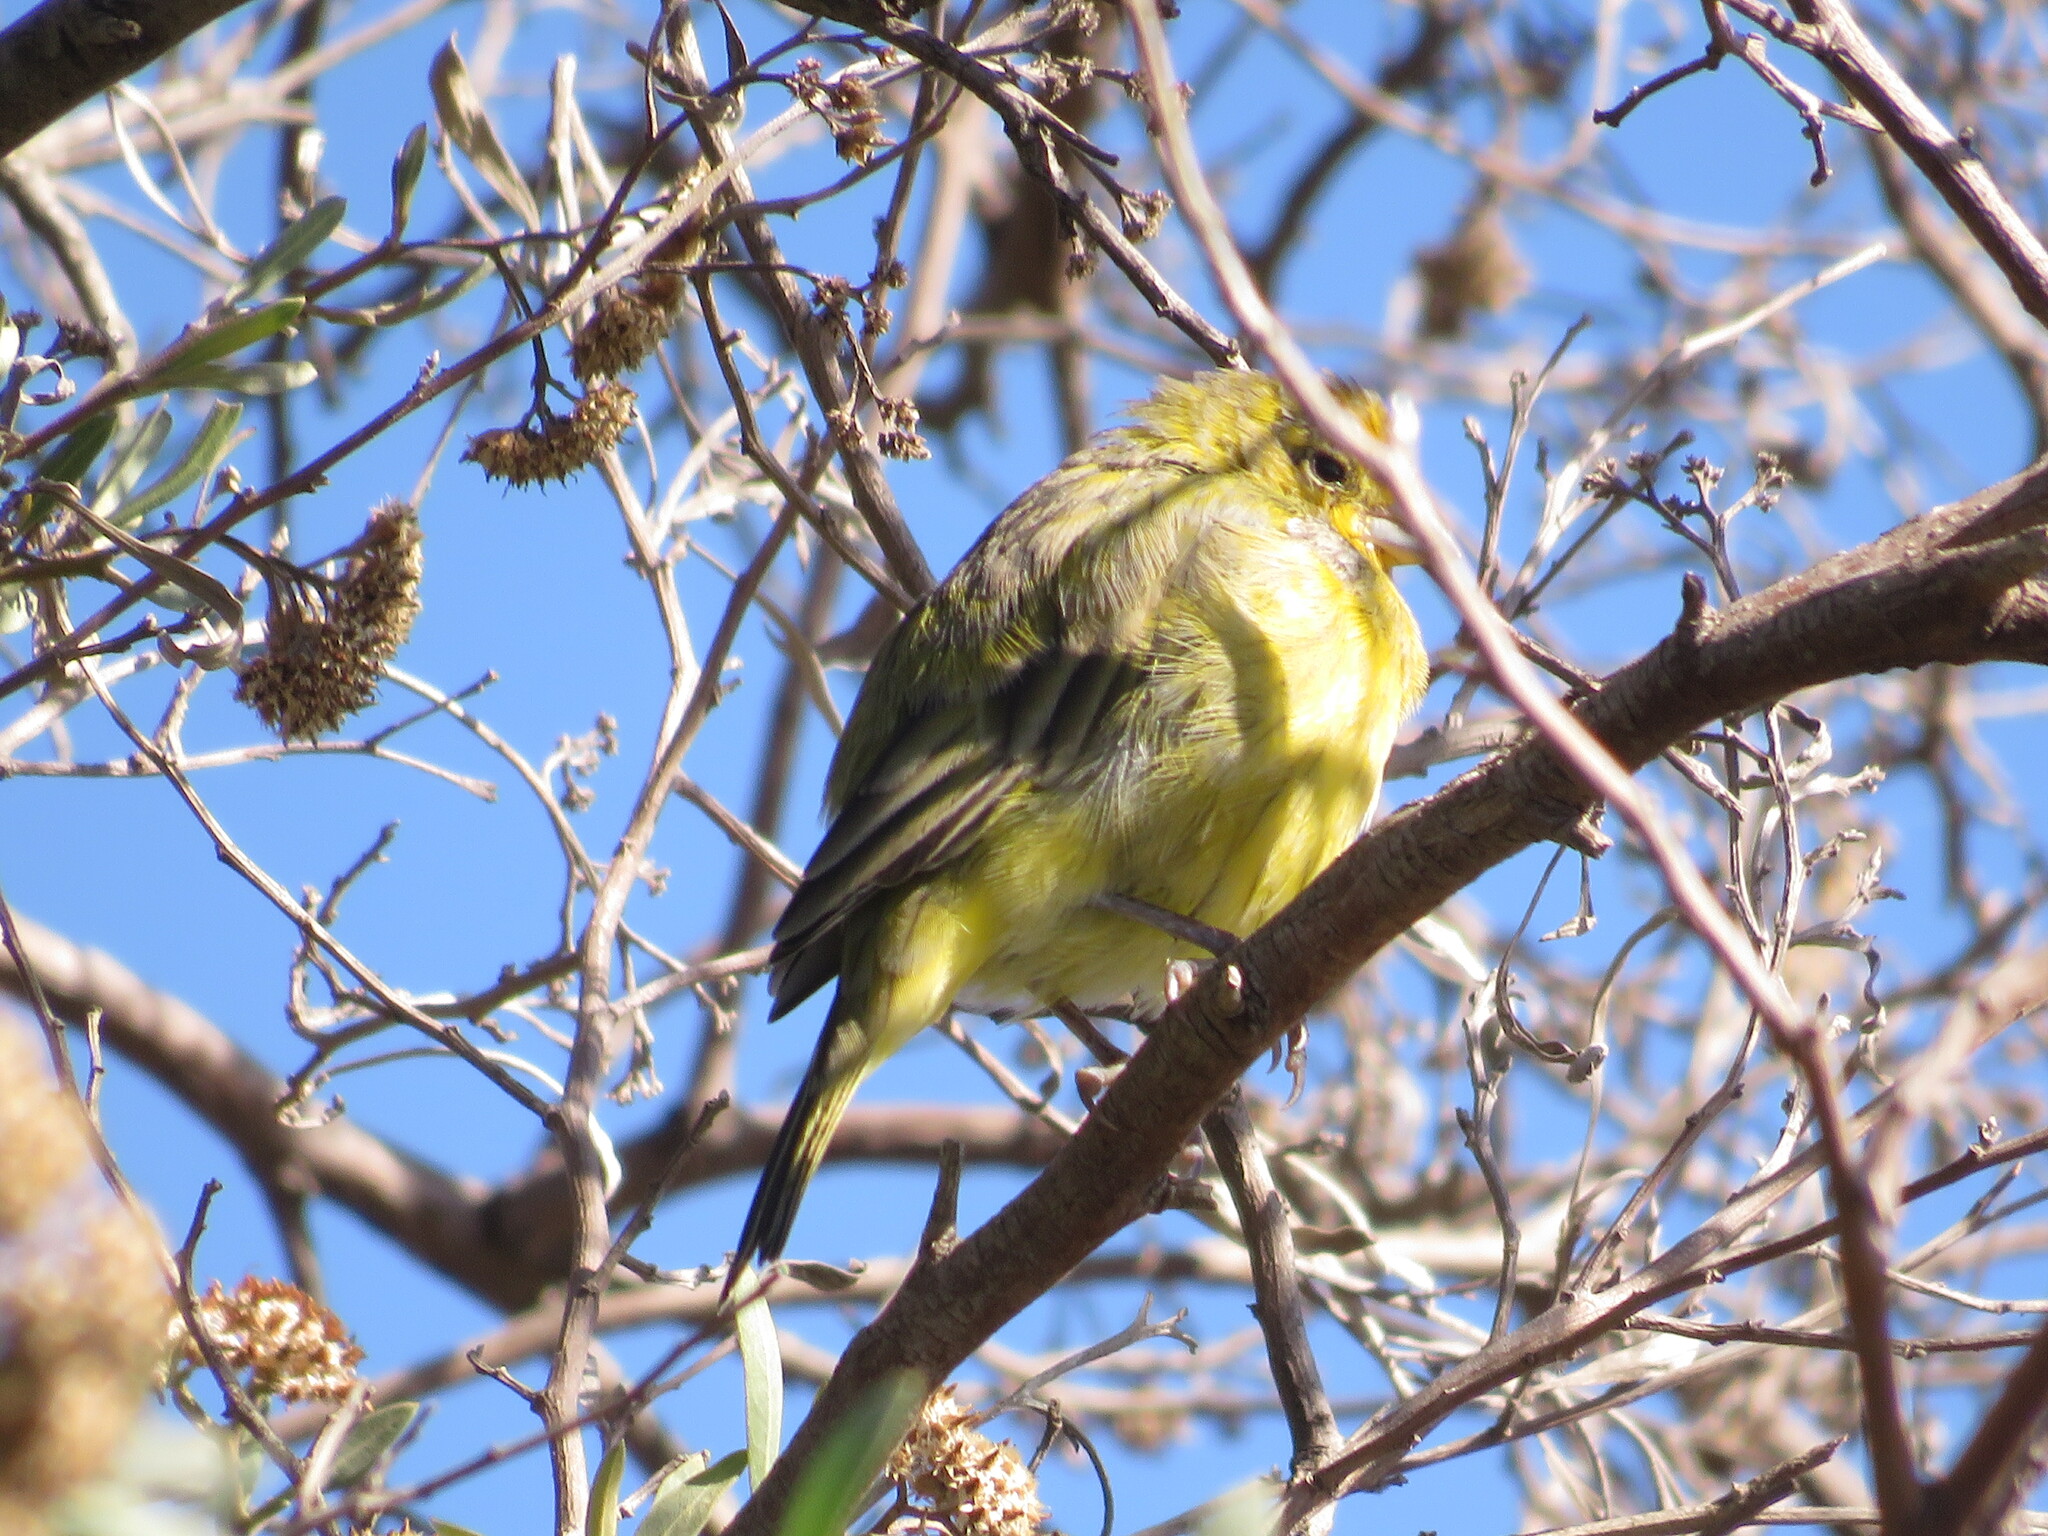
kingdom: Animalia
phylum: Chordata
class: Aves
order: Passeriformes
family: Thraupidae
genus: Sicalis
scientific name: Sicalis flaveola
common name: Saffron finch
